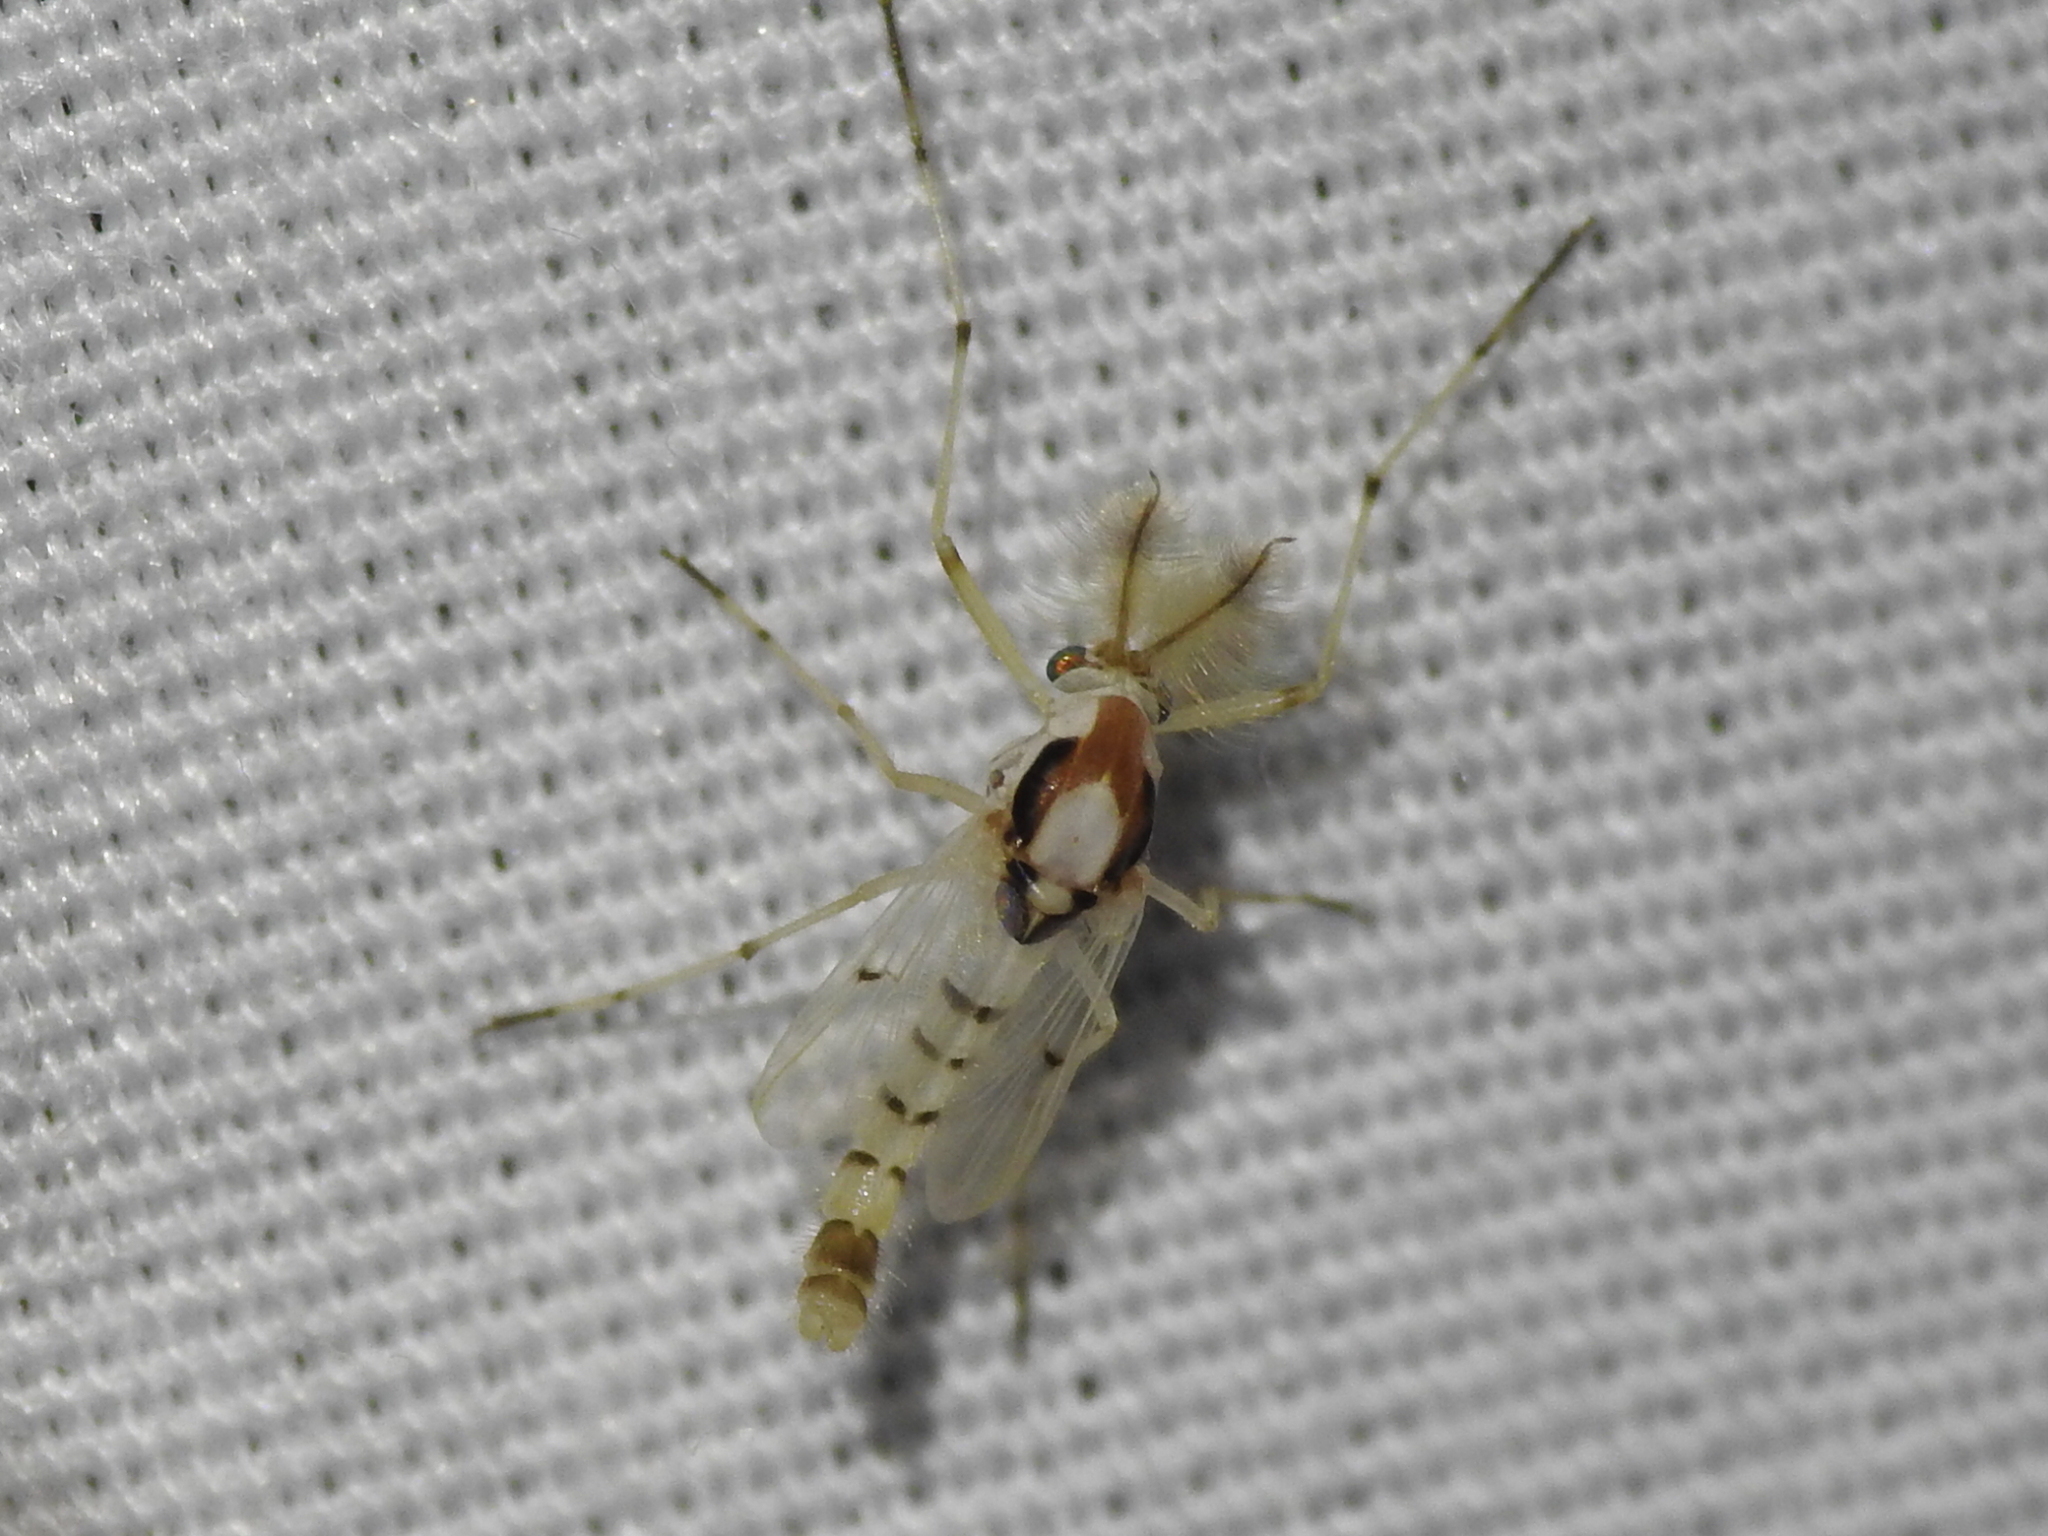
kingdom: Animalia
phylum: Arthropoda
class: Insecta
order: Diptera
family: Chironomidae
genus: Coelotanypus
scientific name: Coelotanypus concinnus
